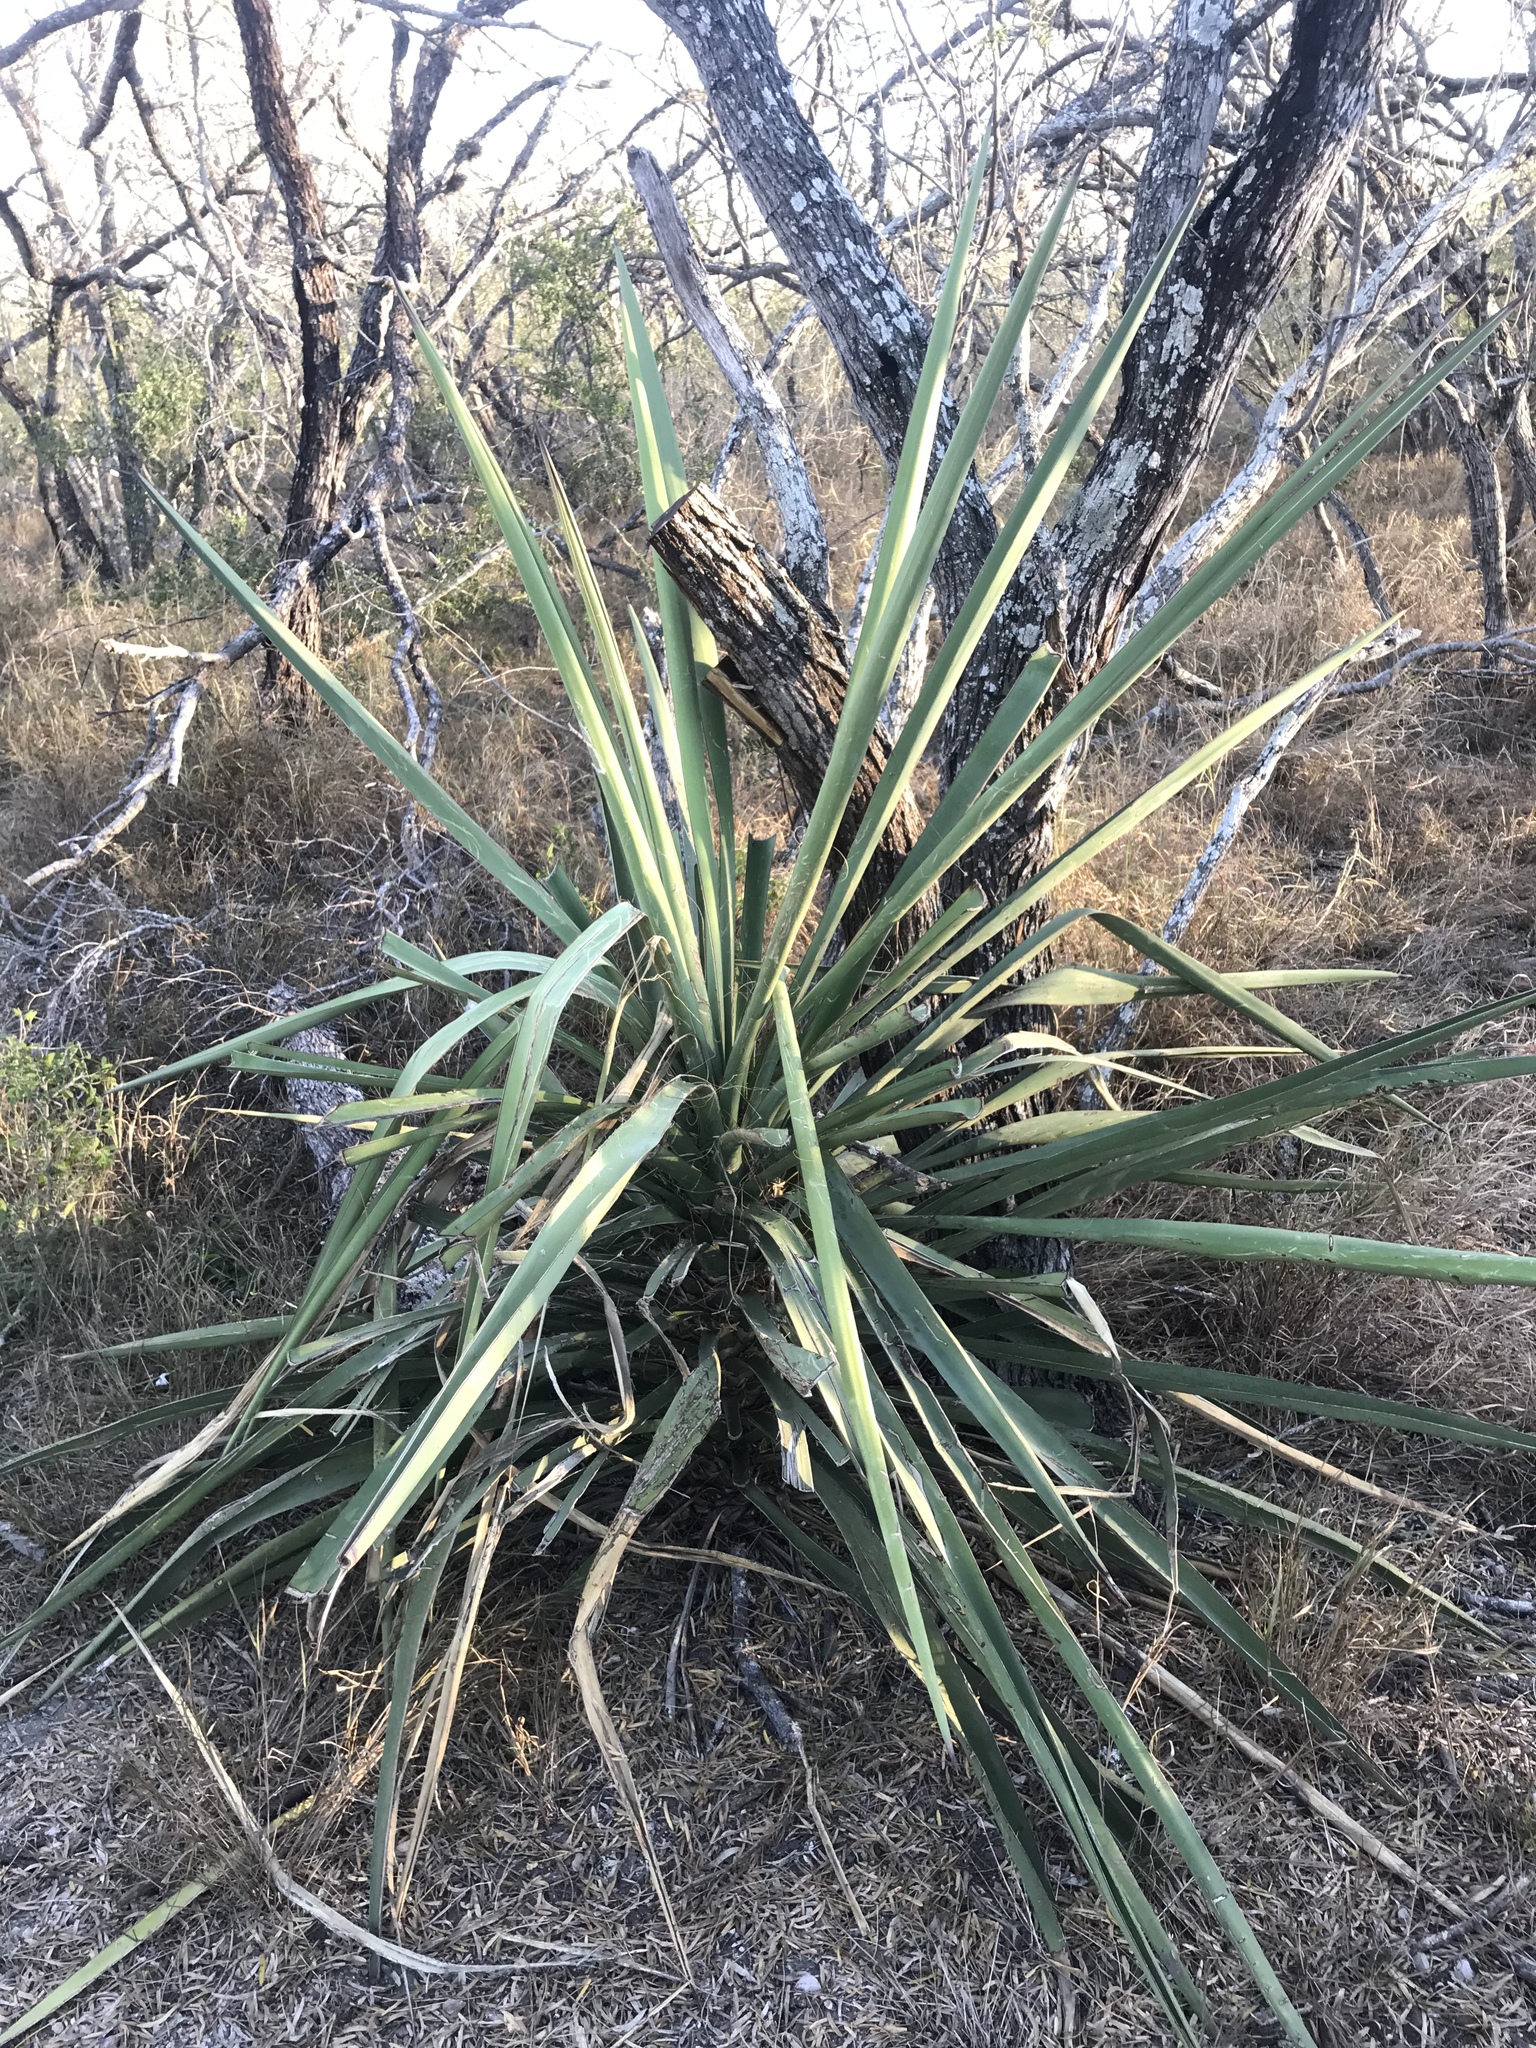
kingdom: Plantae
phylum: Tracheophyta
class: Liliopsida
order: Asparagales
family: Asparagaceae
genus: Yucca
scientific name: Yucca treculiana
